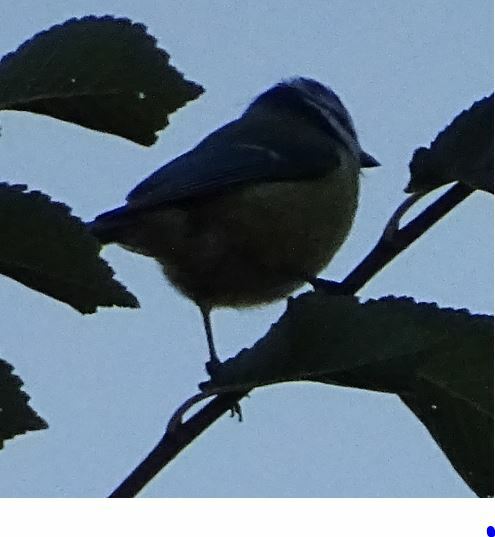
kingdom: Animalia
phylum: Chordata
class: Aves
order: Passeriformes
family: Paridae
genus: Cyanistes
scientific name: Cyanistes caeruleus
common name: Eurasian blue tit
